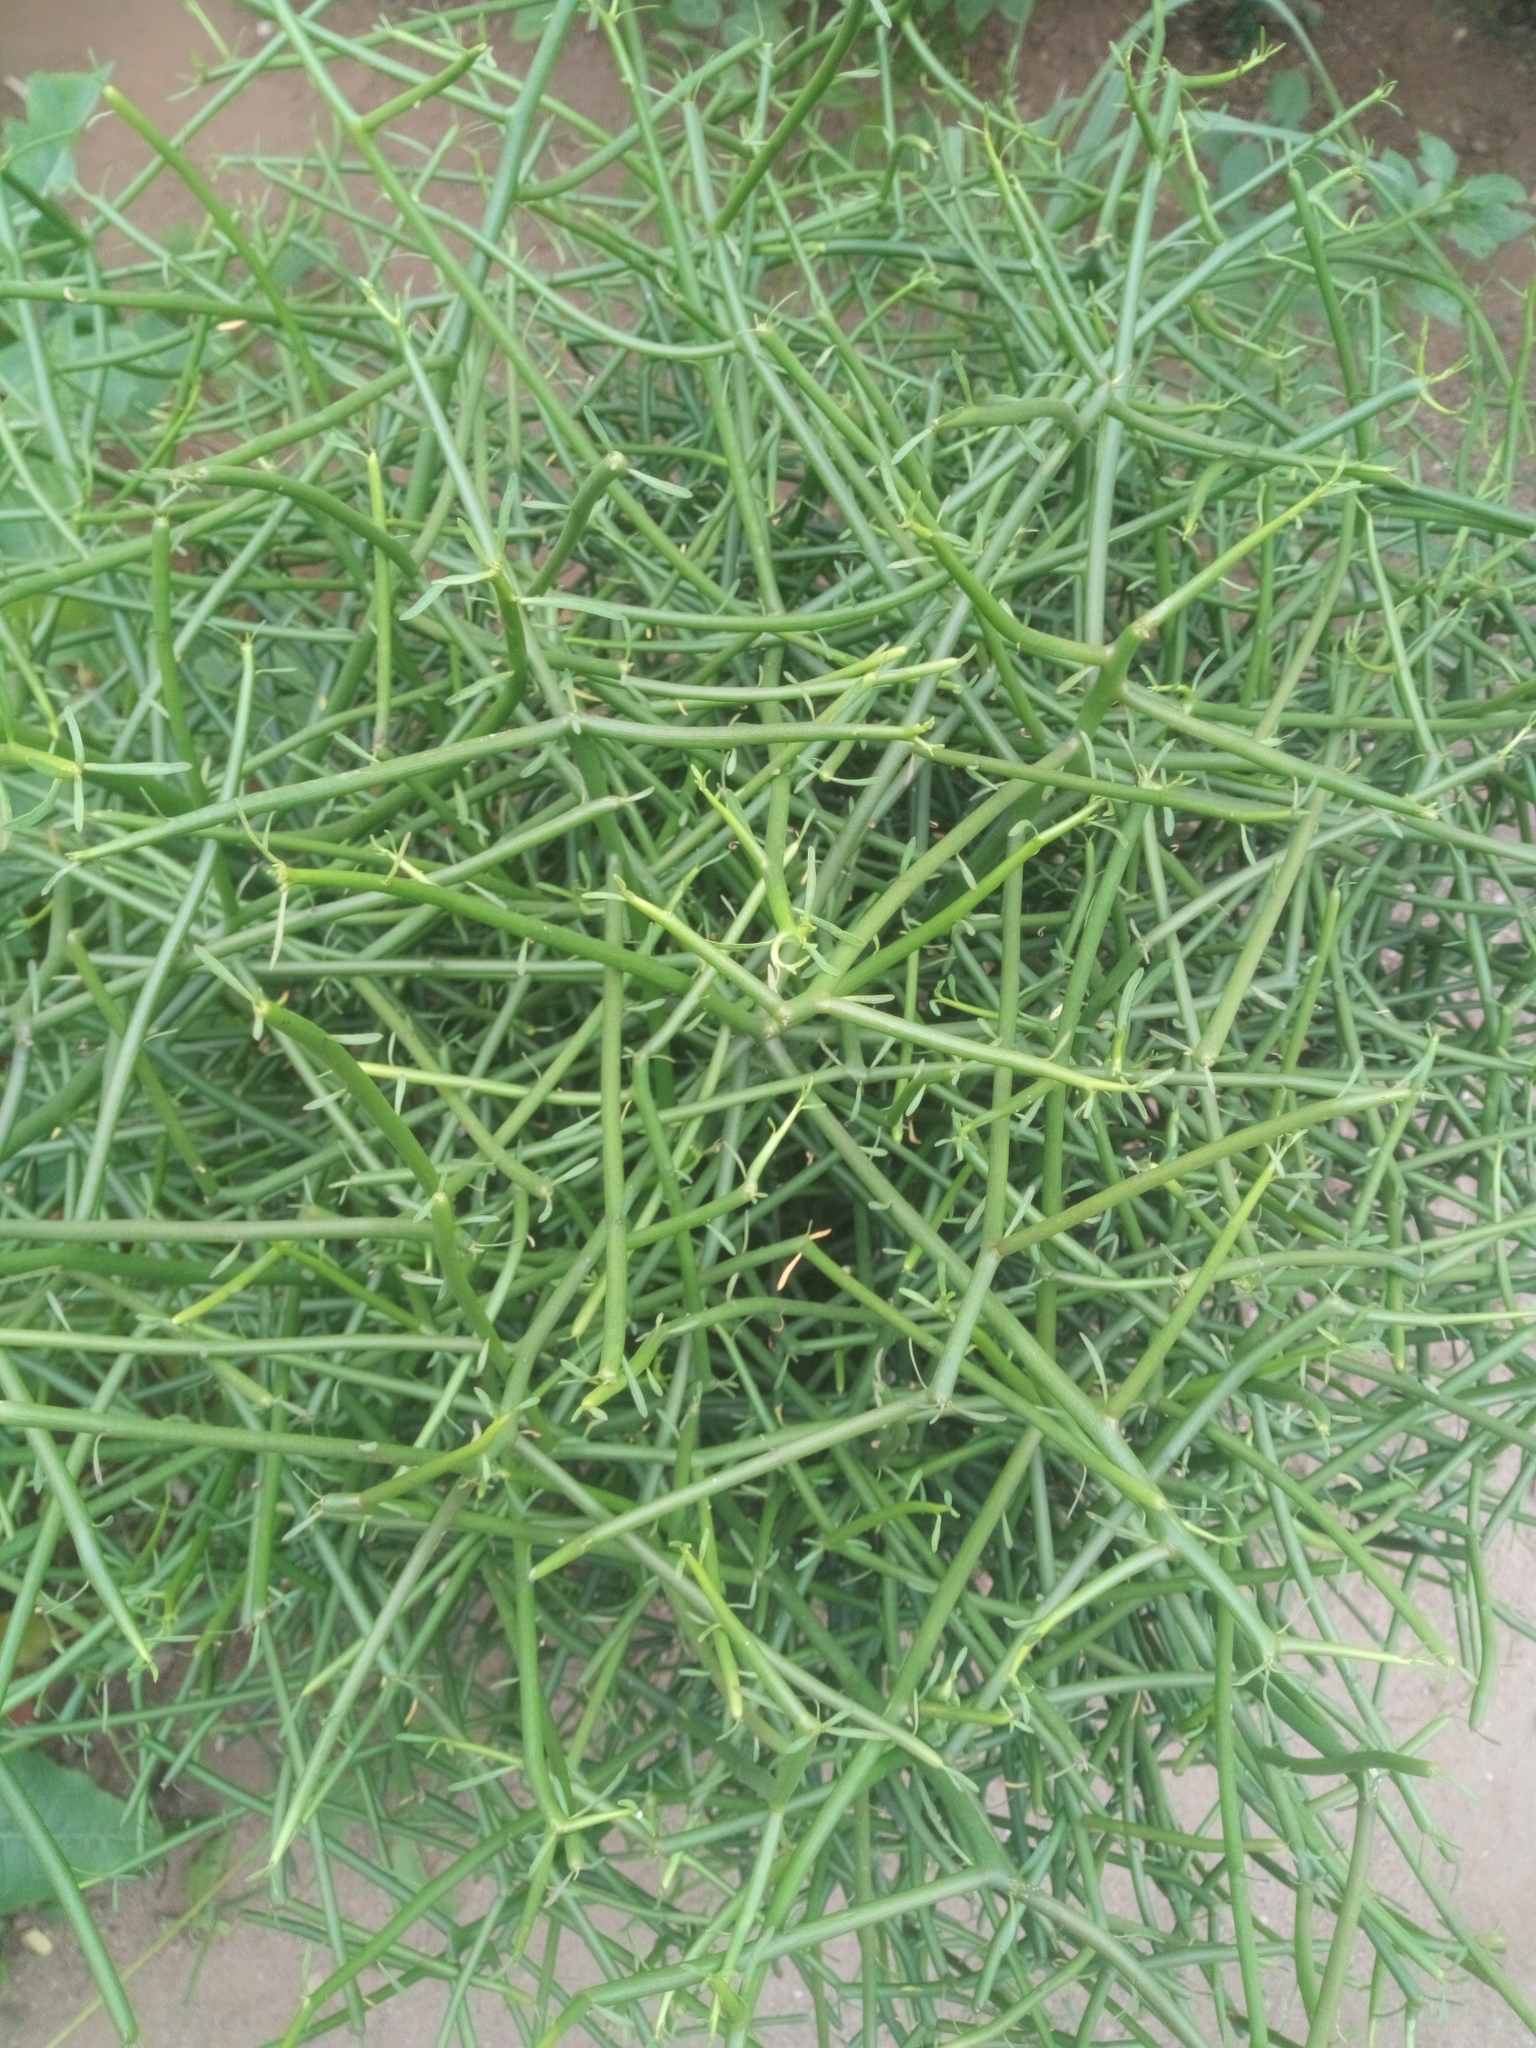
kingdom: Plantae
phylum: Tracheophyta
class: Magnoliopsida
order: Malpighiales
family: Euphorbiaceae
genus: Euphorbia
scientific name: Euphorbia tirucalli
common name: Indiantree spurge
